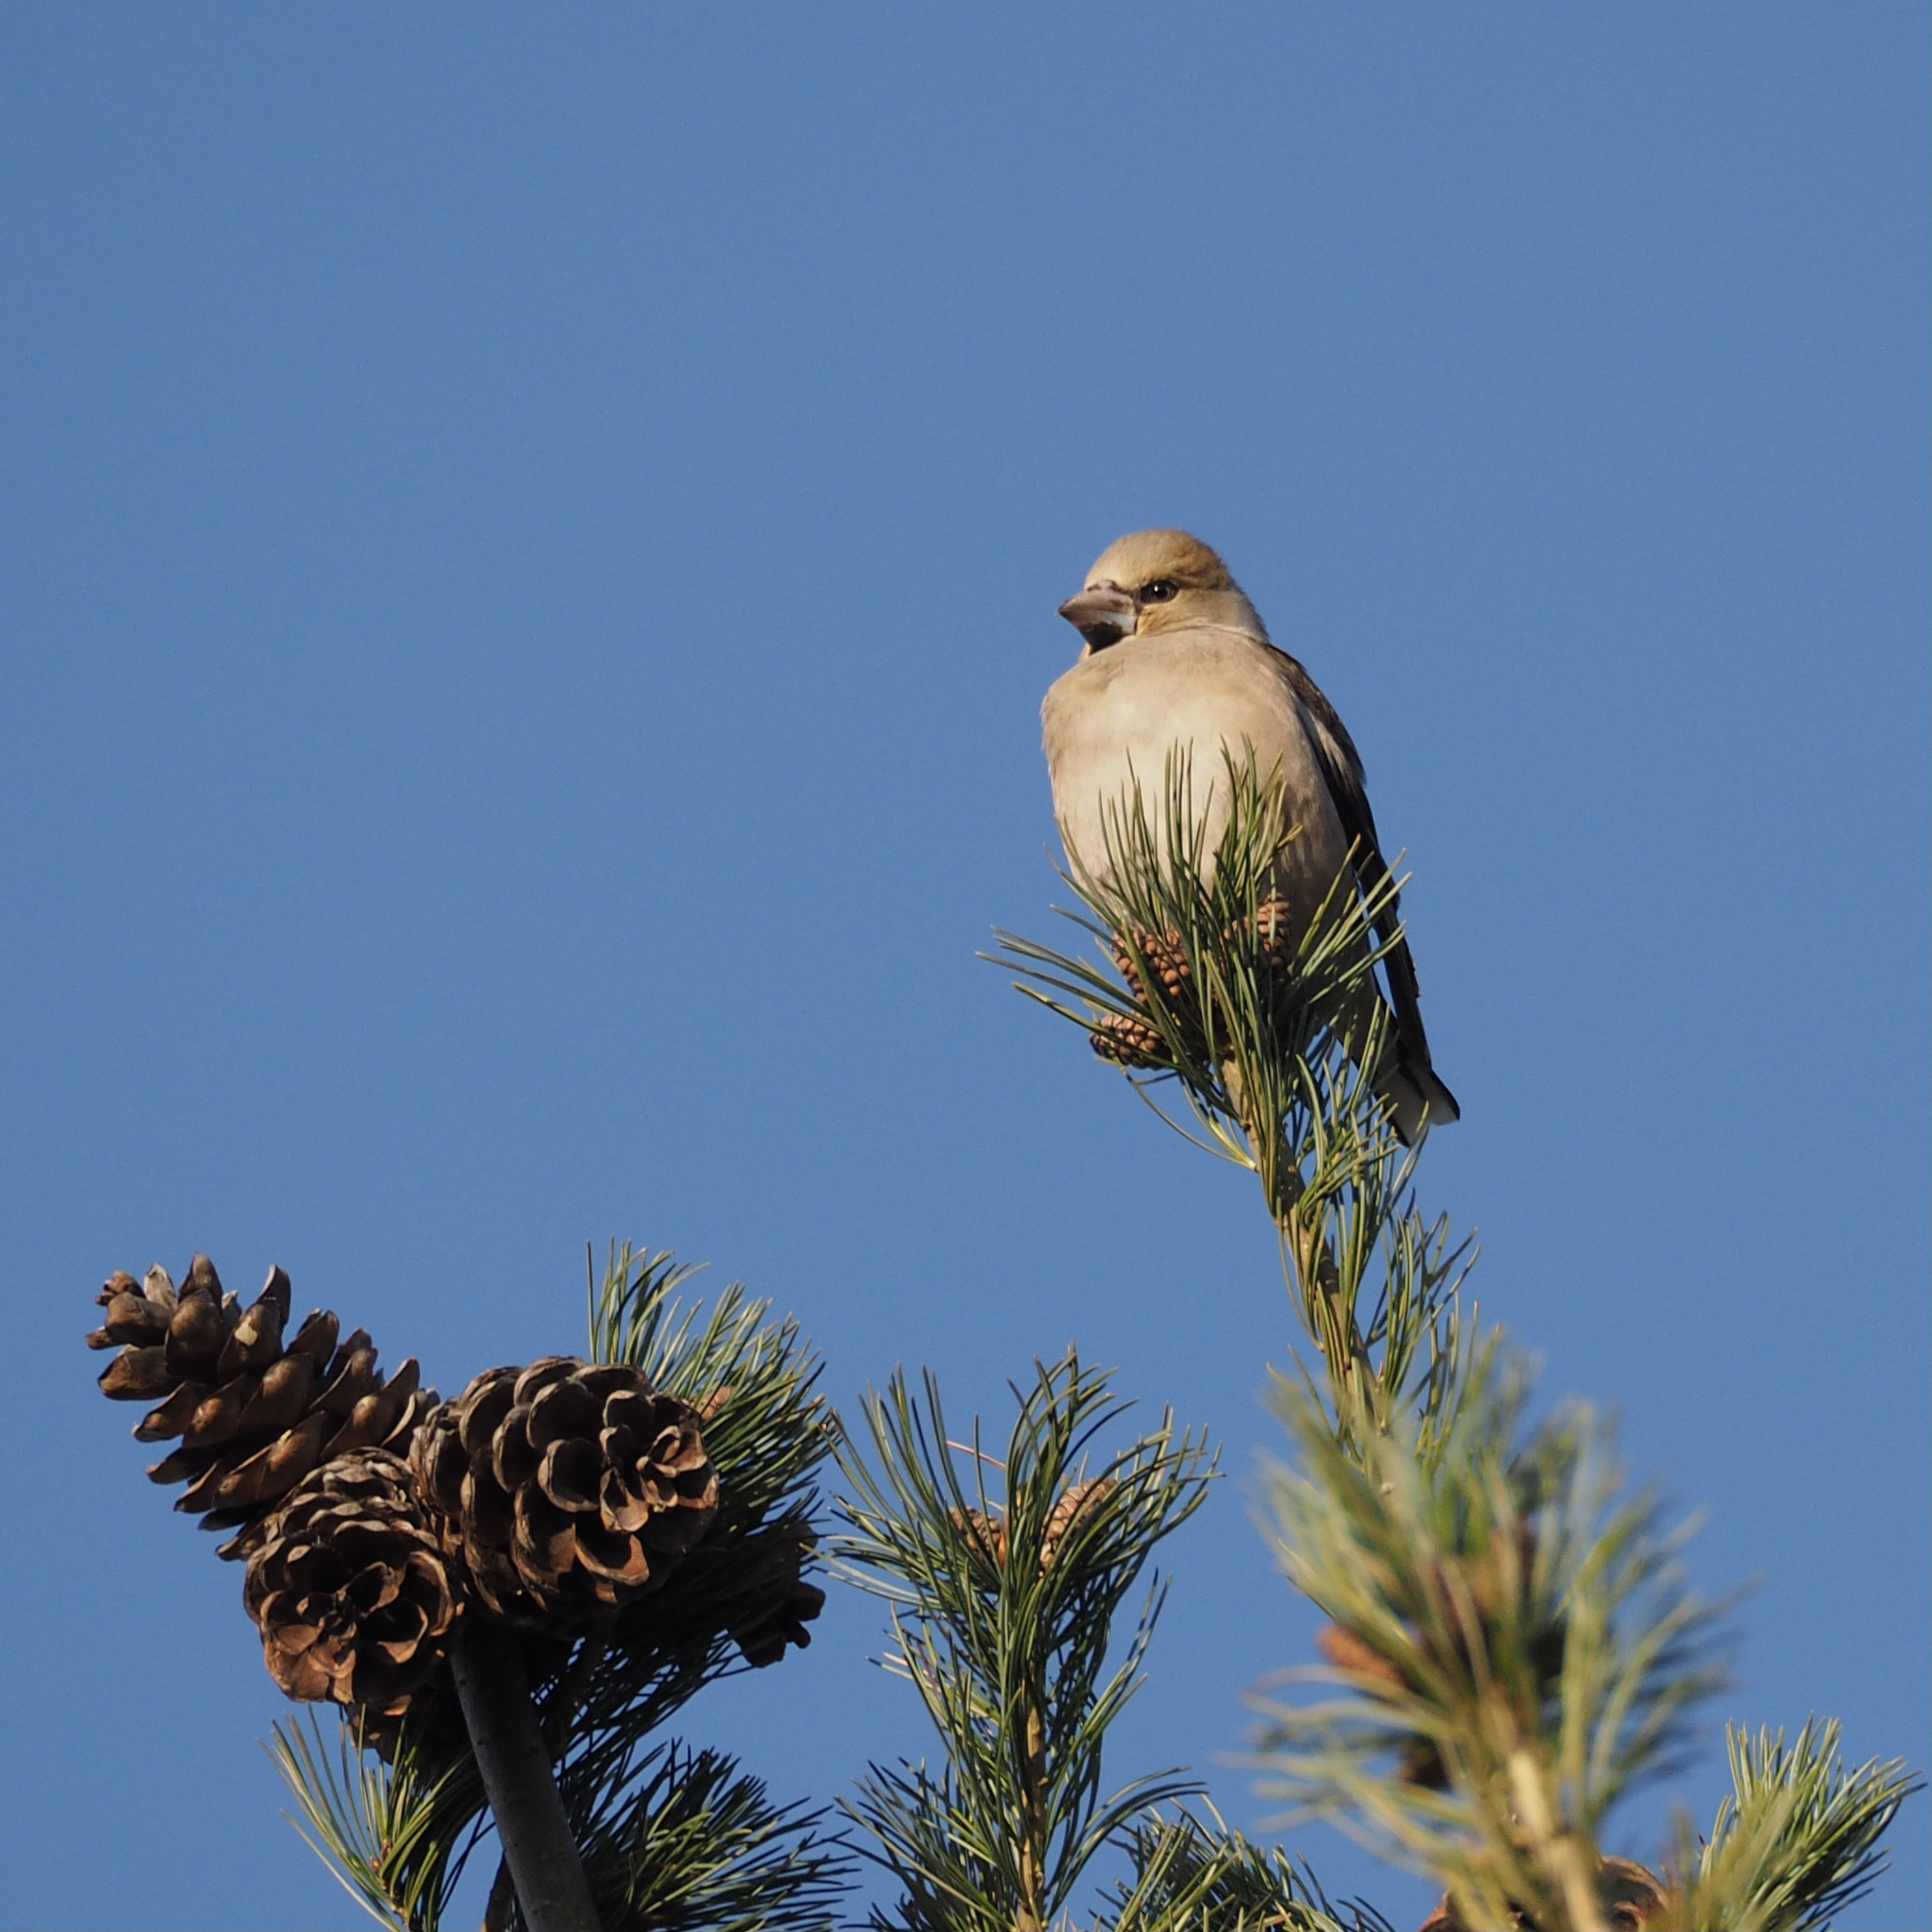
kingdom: Animalia
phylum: Chordata
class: Aves
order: Passeriformes
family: Fringillidae
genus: Coccothraustes
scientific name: Coccothraustes coccothraustes
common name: Hawfinch
